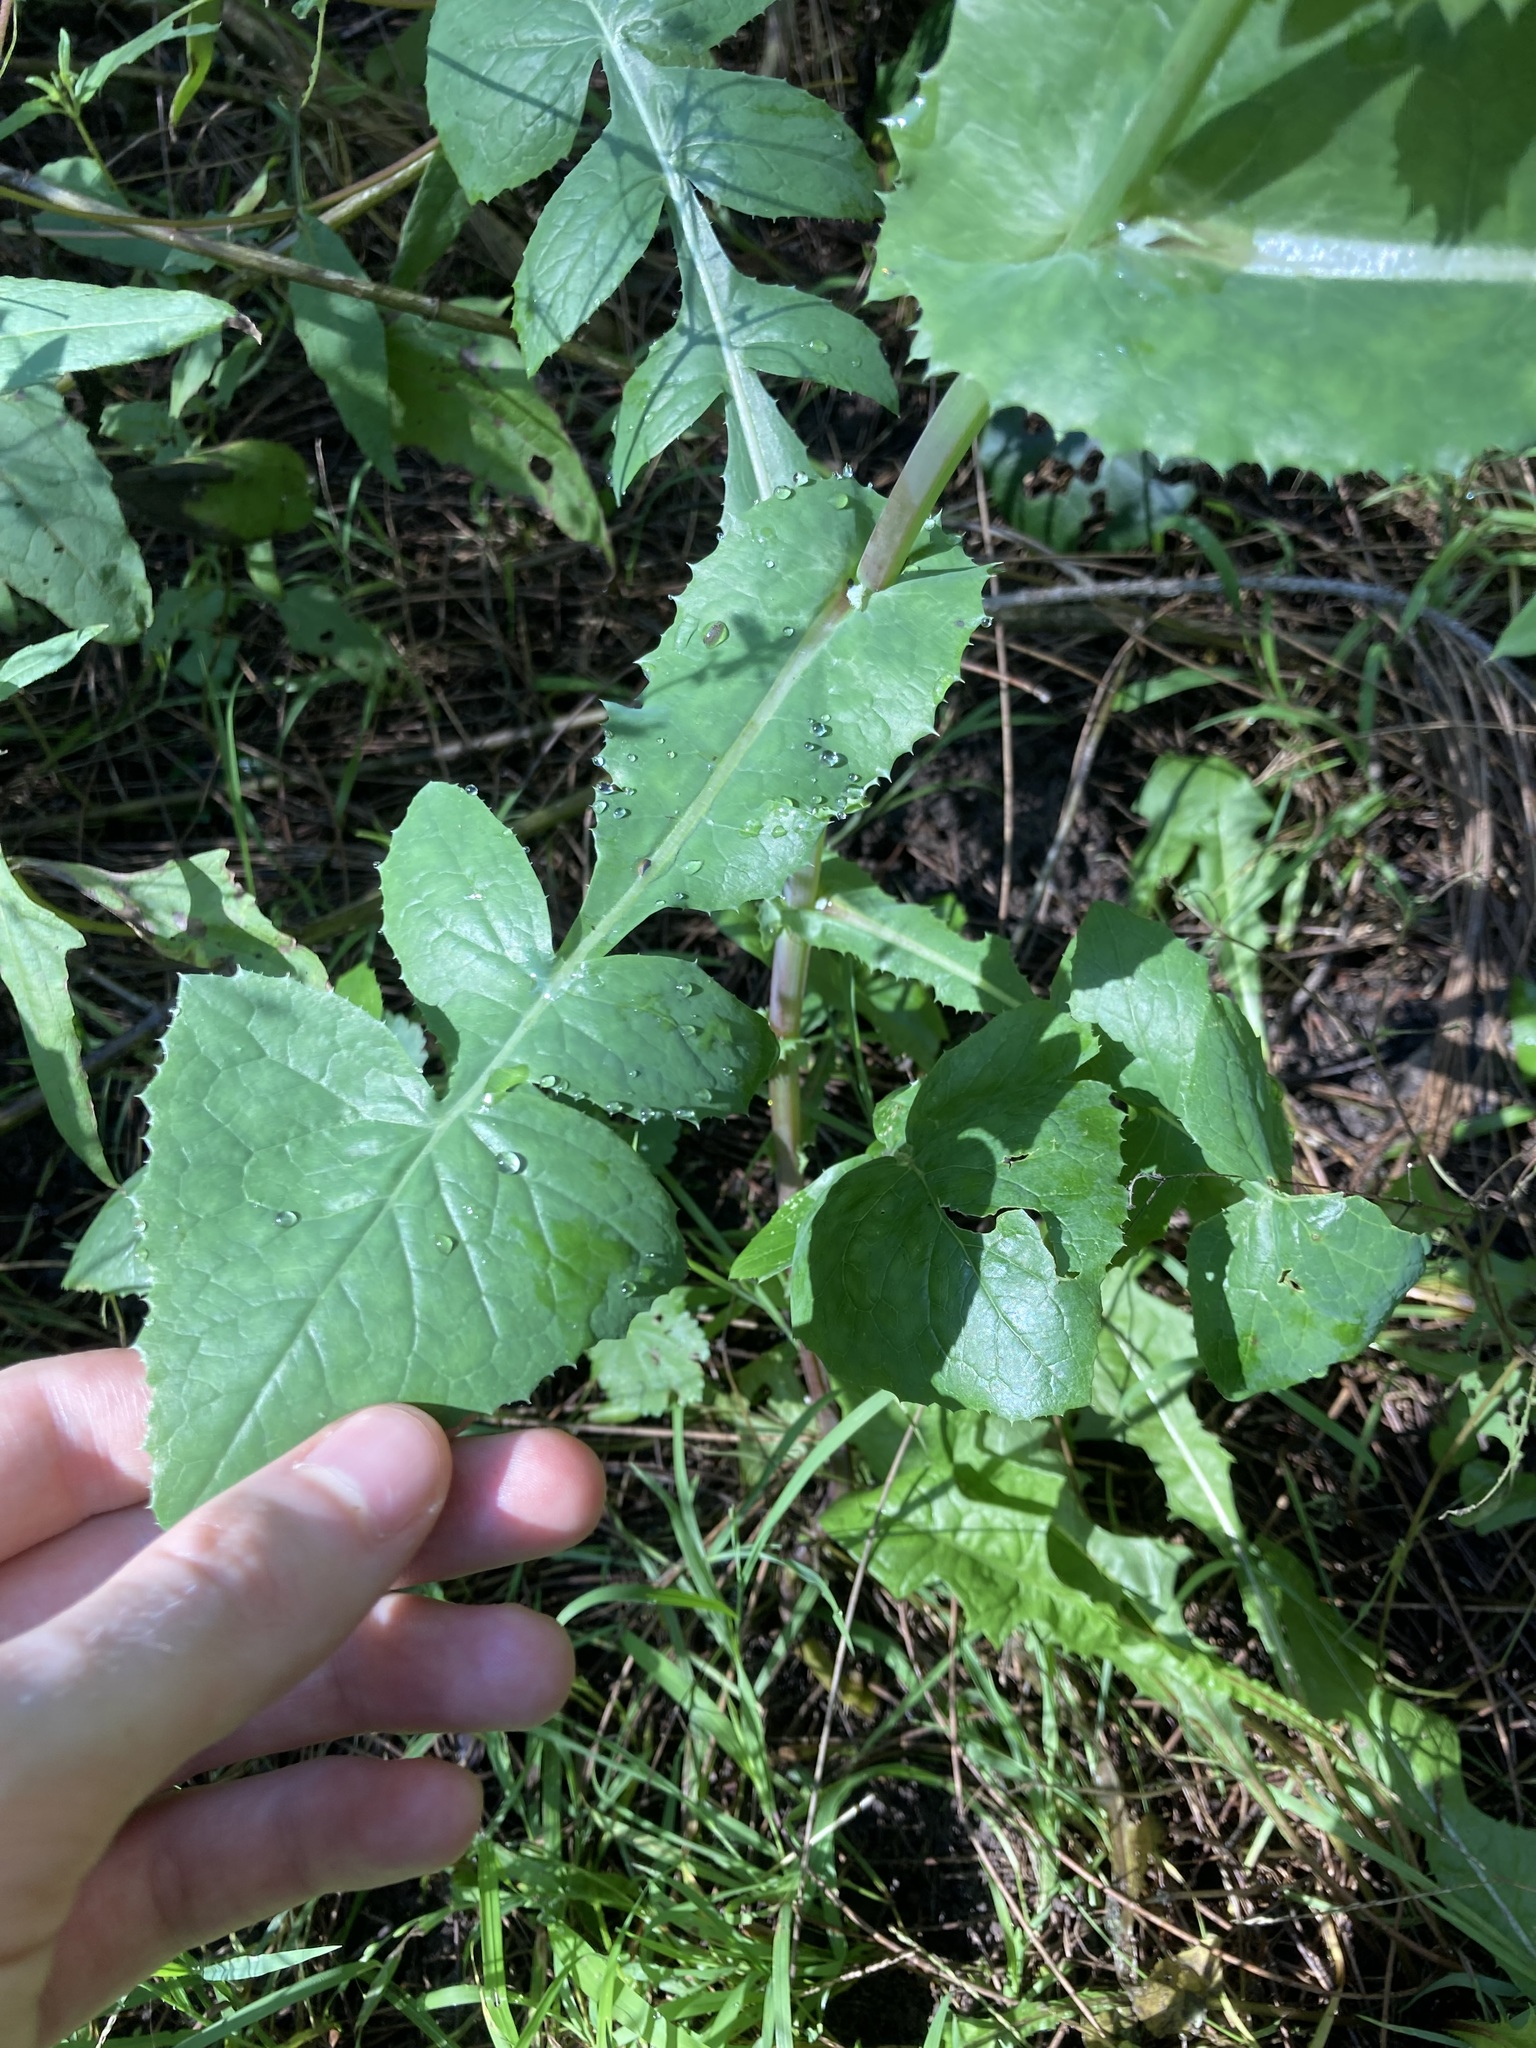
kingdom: Plantae
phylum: Tracheophyta
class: Magnoliopsida
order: Asterales
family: Asteraceae
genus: Sonchus
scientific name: Sonchus oleraceus
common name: Common sowthistle
